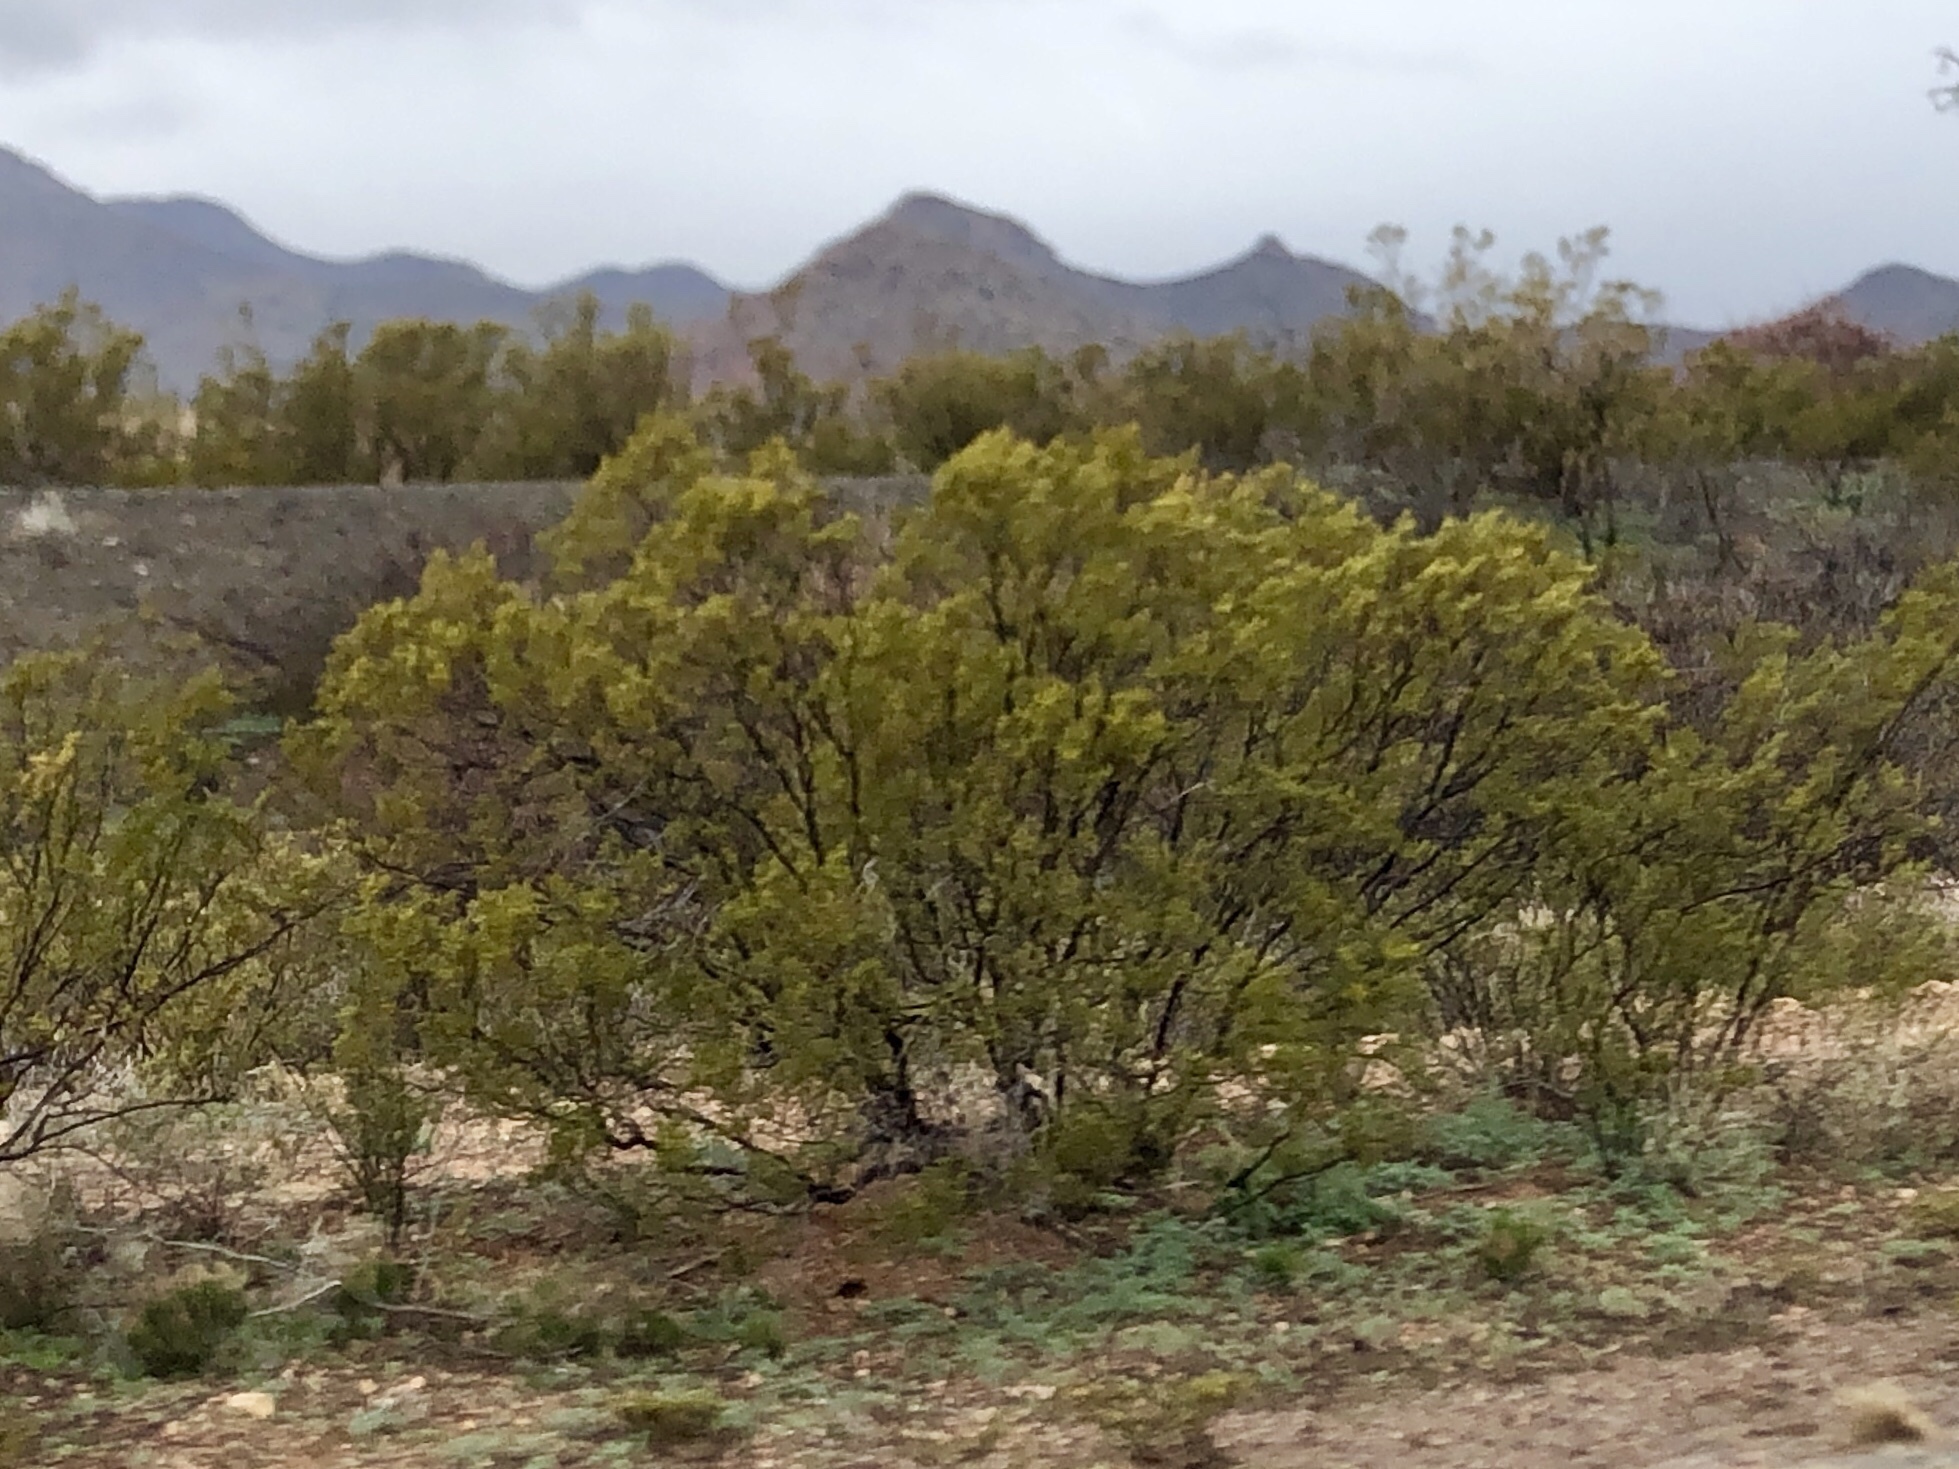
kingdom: Plantae
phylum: Tracheophyta
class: Magnoliopsida
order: Zygophyllales
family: Zygophyllaceae
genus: Larrea
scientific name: Larrea tridentata
